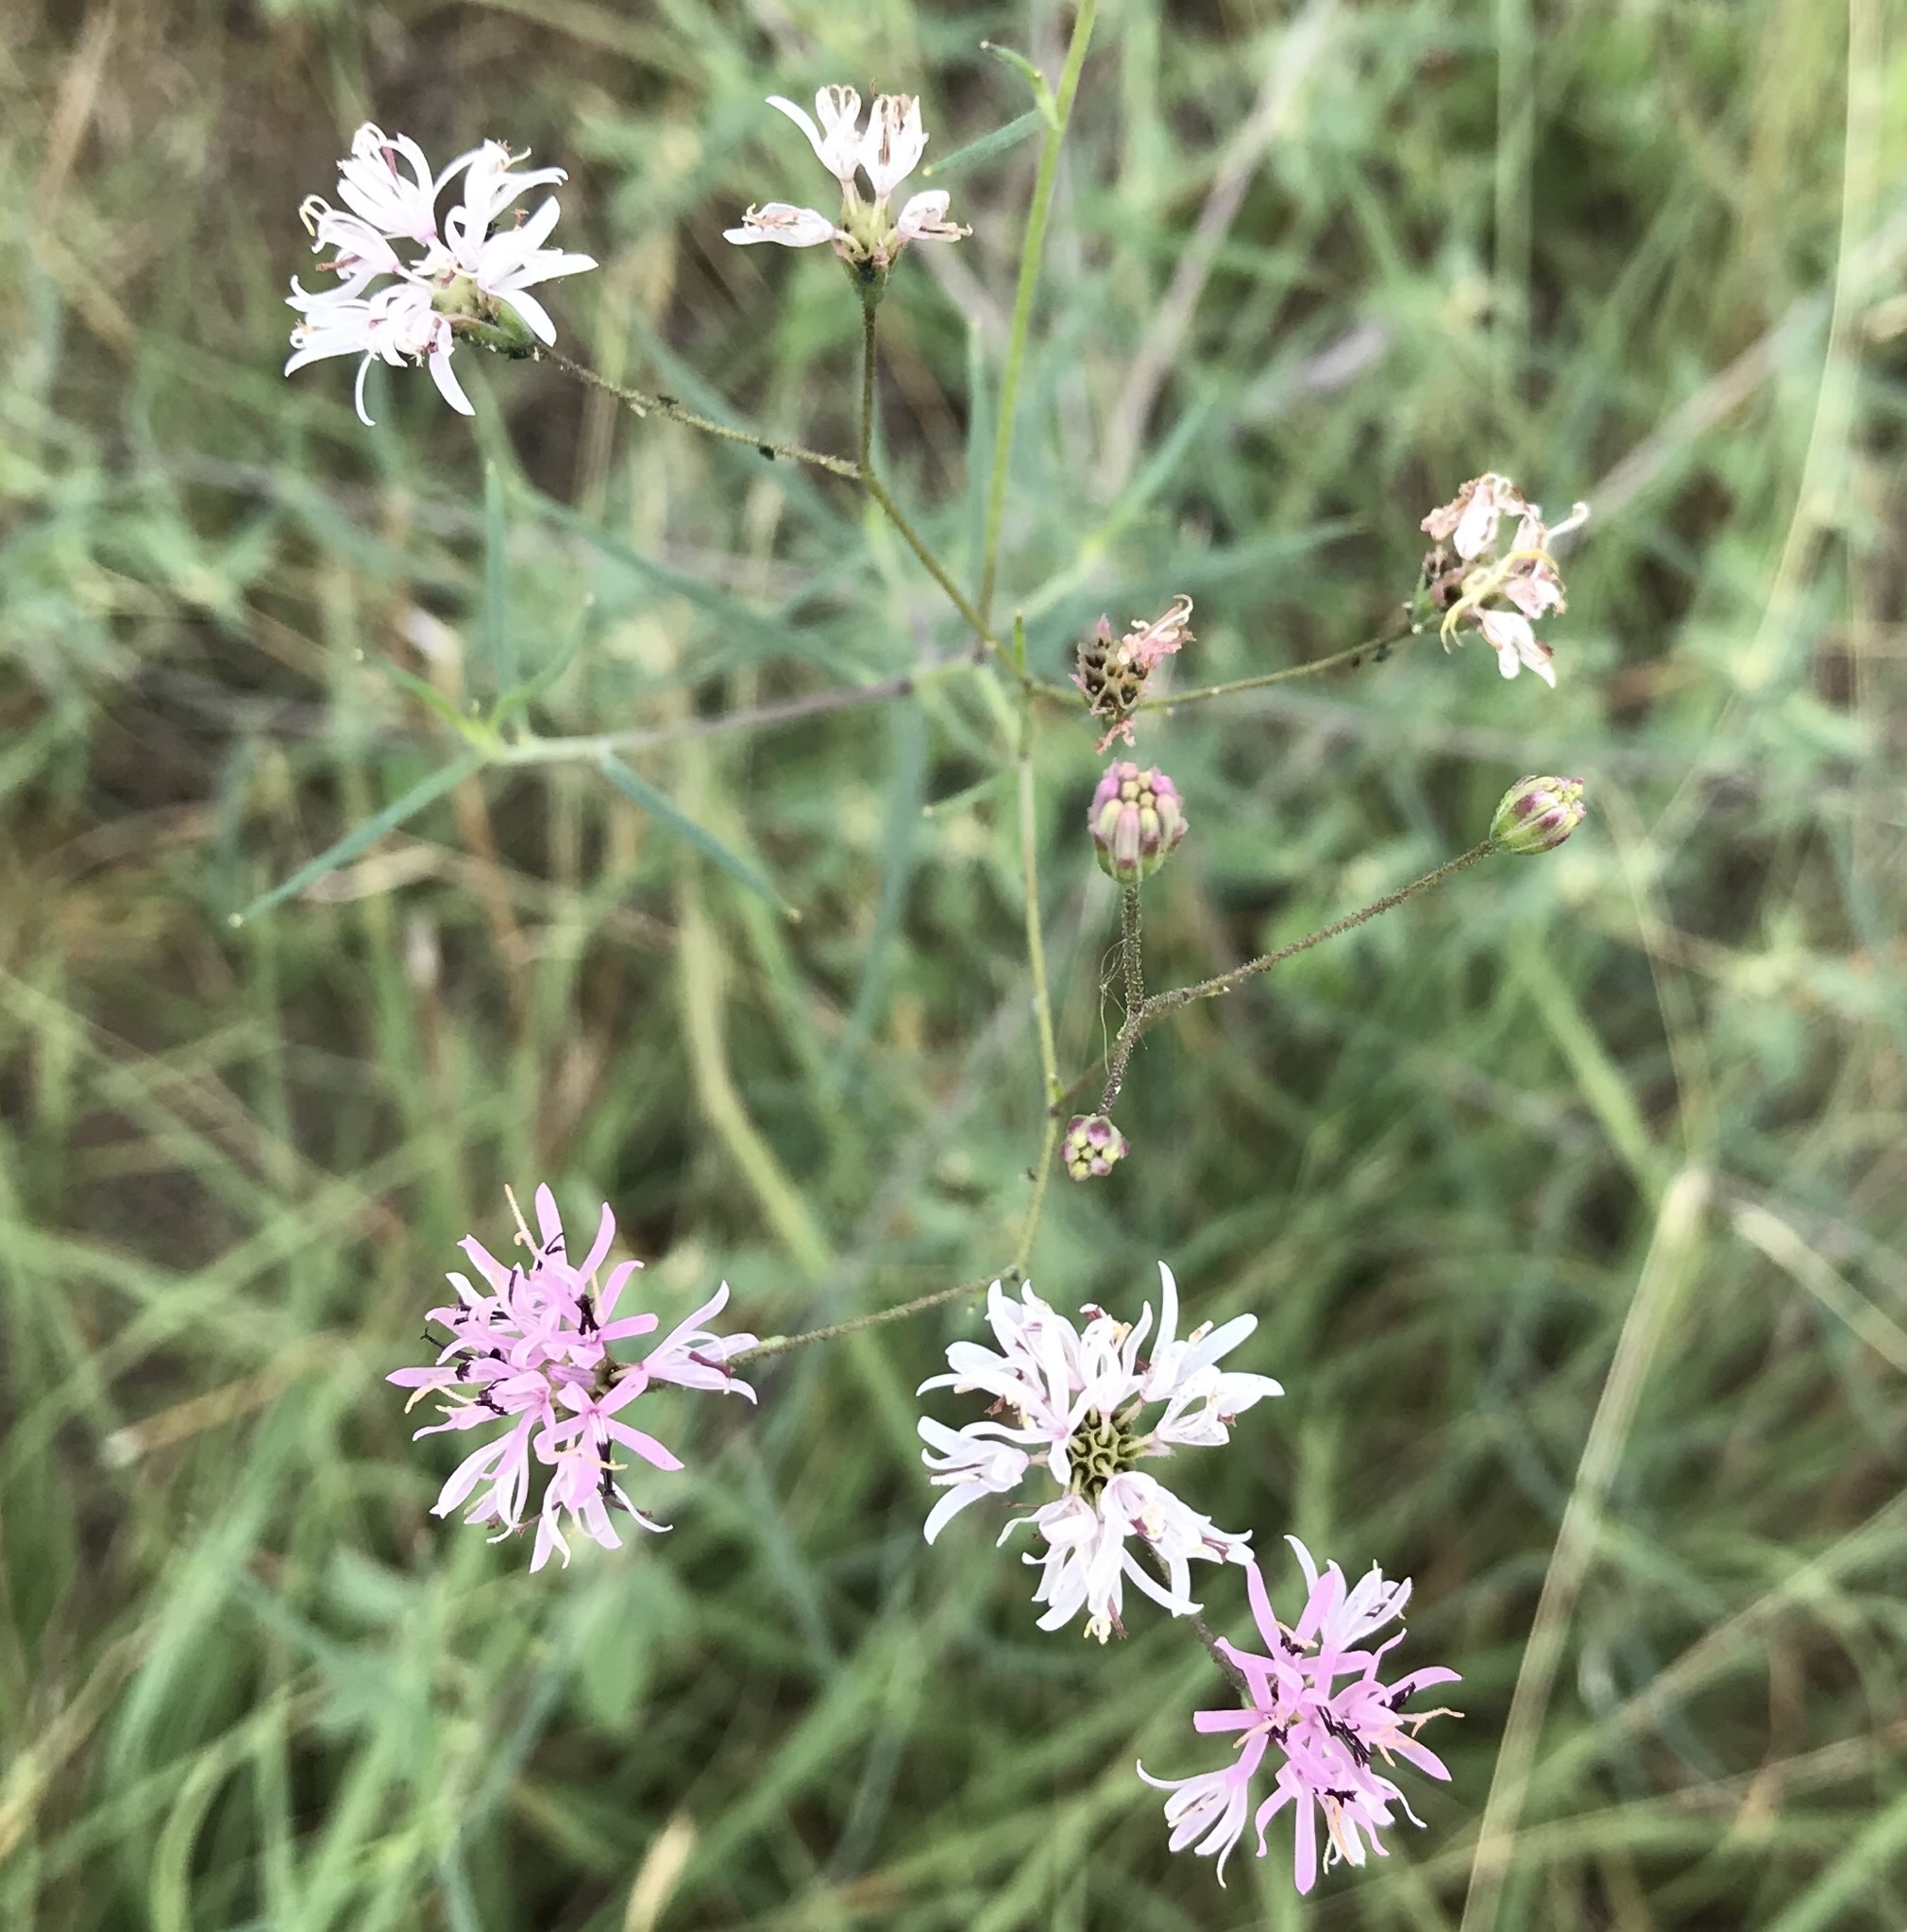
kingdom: Plantae
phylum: Tracheophyta
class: Magnoliopsida
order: Asterales
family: Asteraceae
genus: Palafoxia
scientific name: Palafoxia callosa
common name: Small palafox
